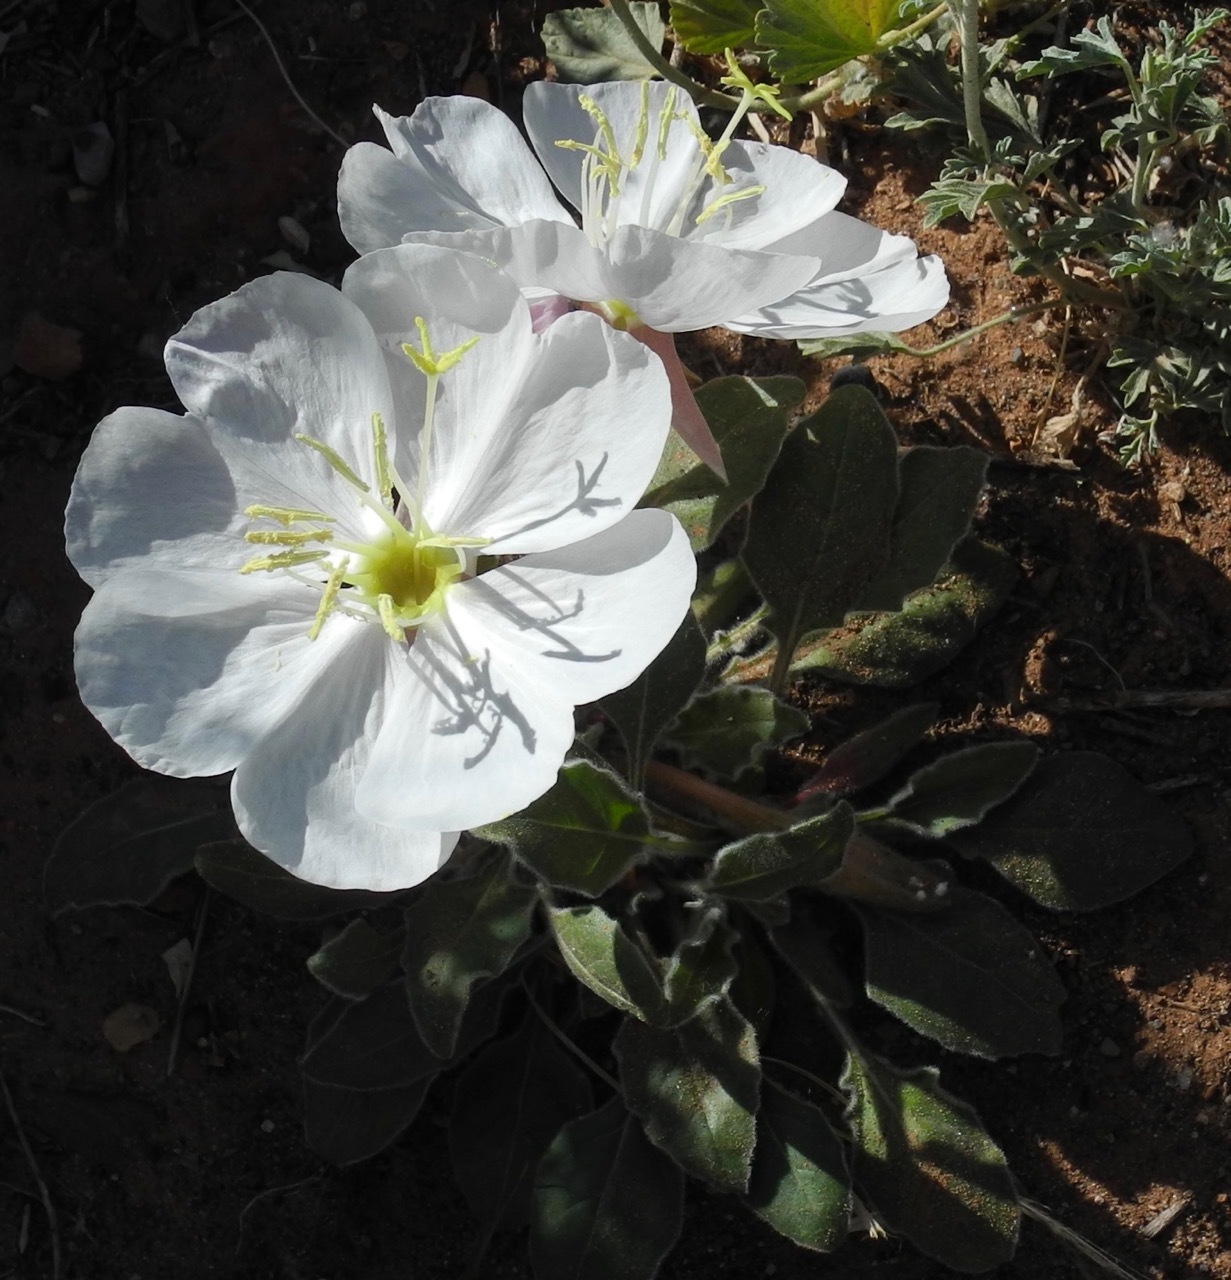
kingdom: Plantae
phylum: Tracheophyta
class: Magnoliopsida
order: Myrtales
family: Onagraceae
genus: Oenothera
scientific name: Oenothera cespitosa
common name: Tufted evening-primrose
